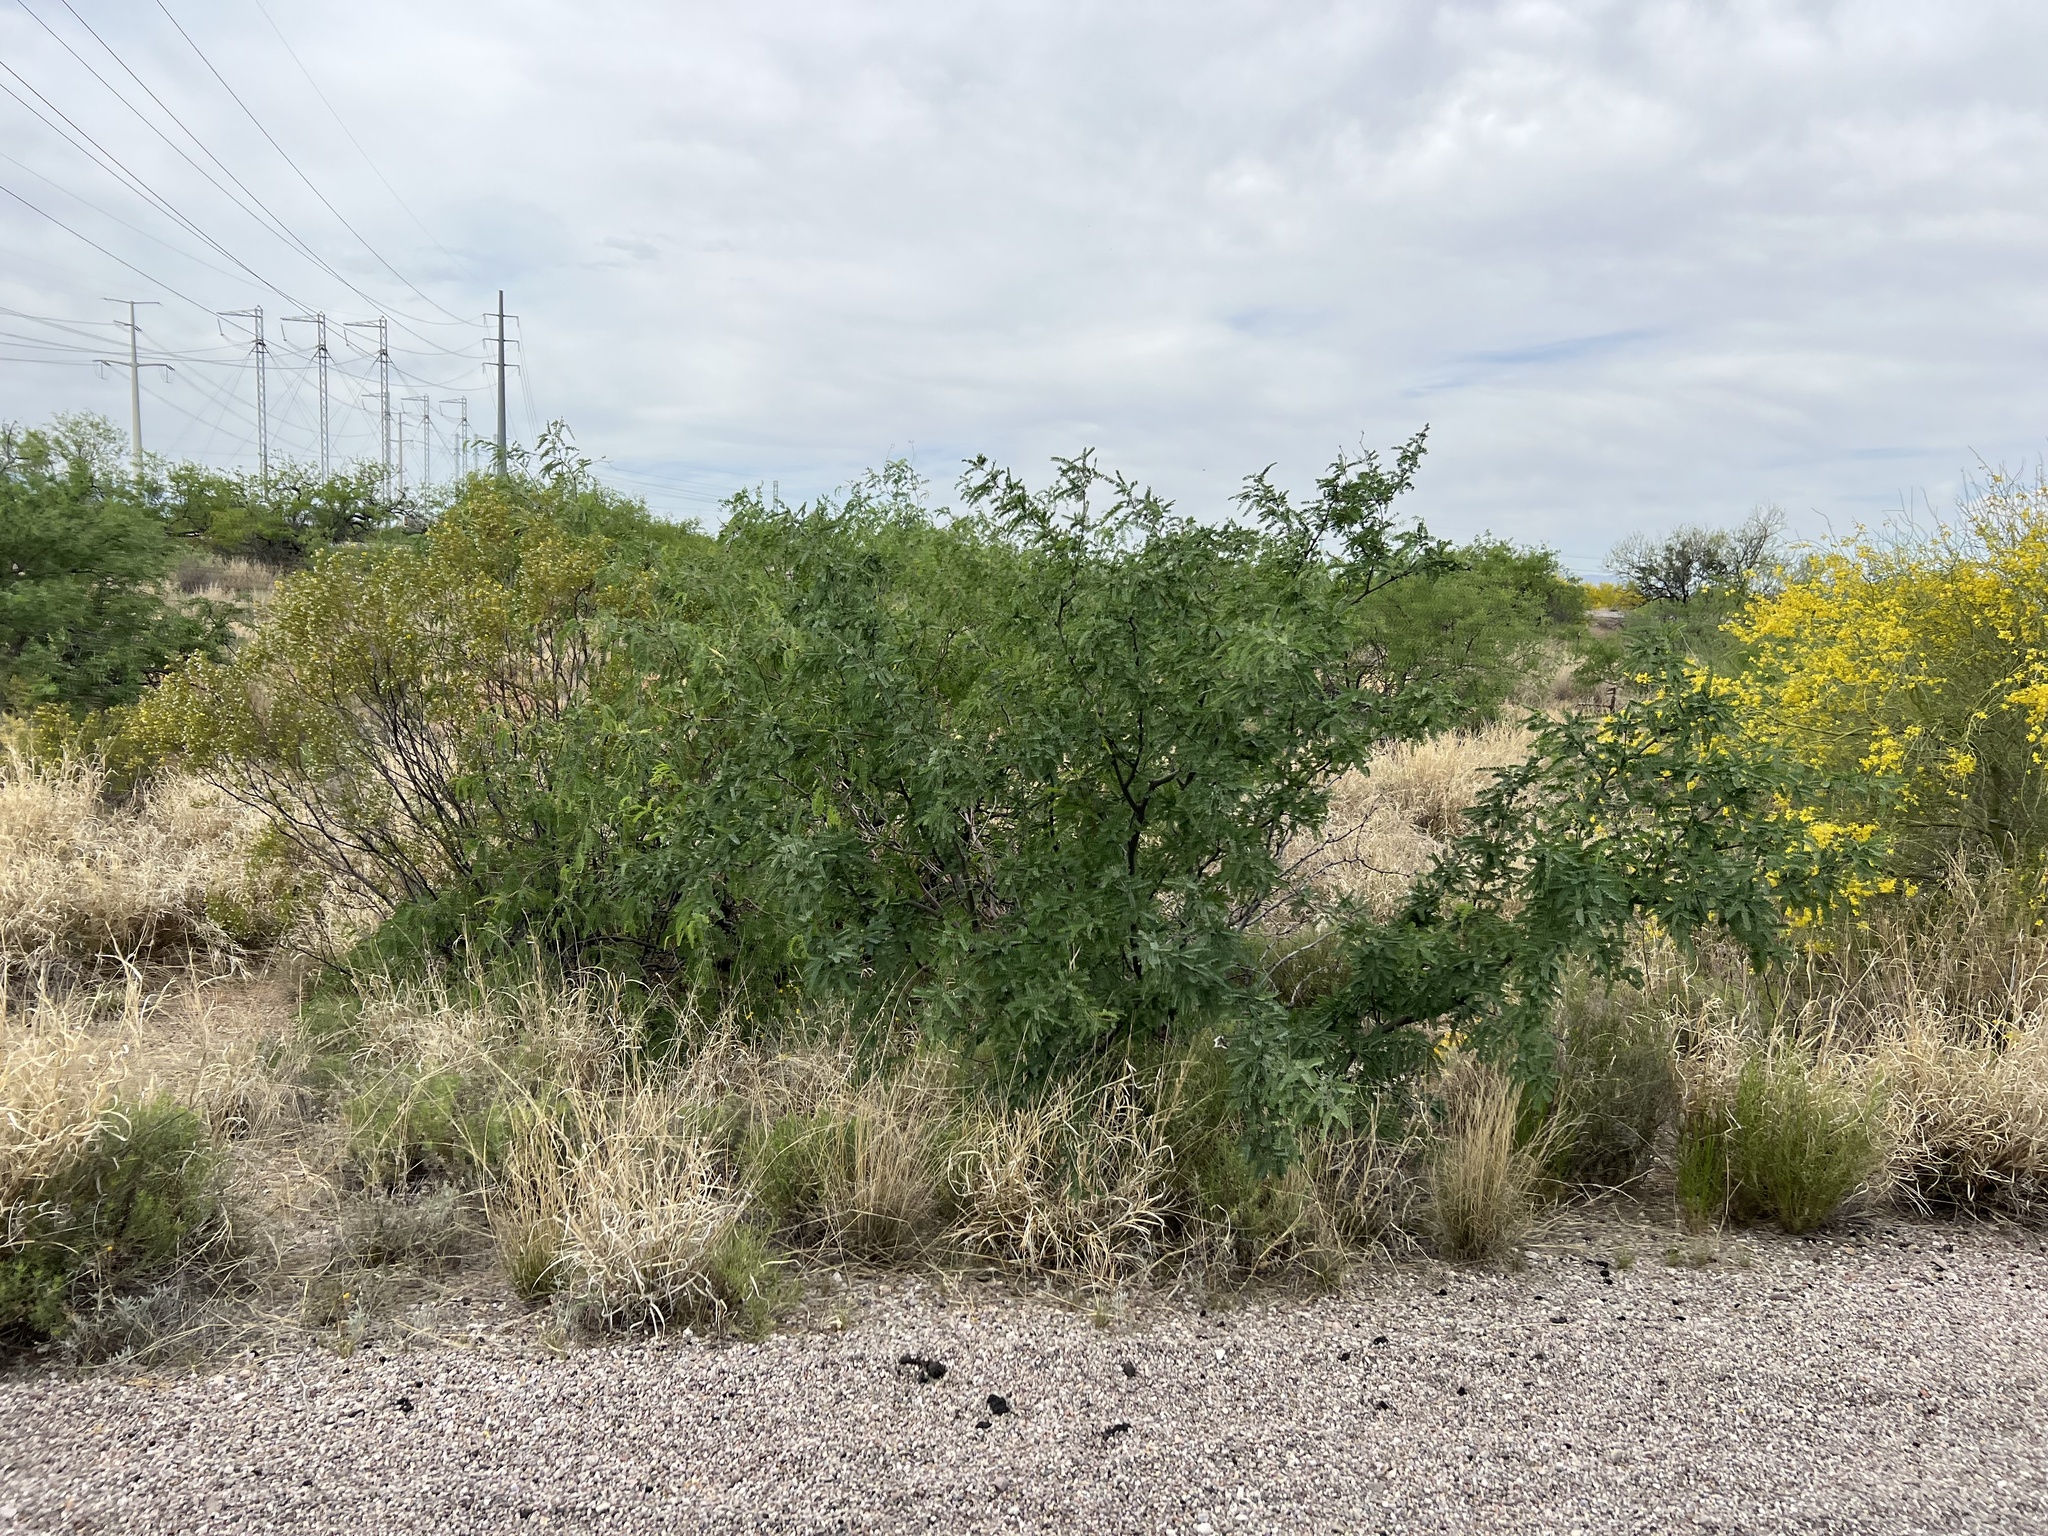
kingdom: Plantae
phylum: Tracheophyta
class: Magnoliopsida
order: Fabales
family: Fabaceae
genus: Prosopis
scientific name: Prosopis velutina
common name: Velvet mesquite
